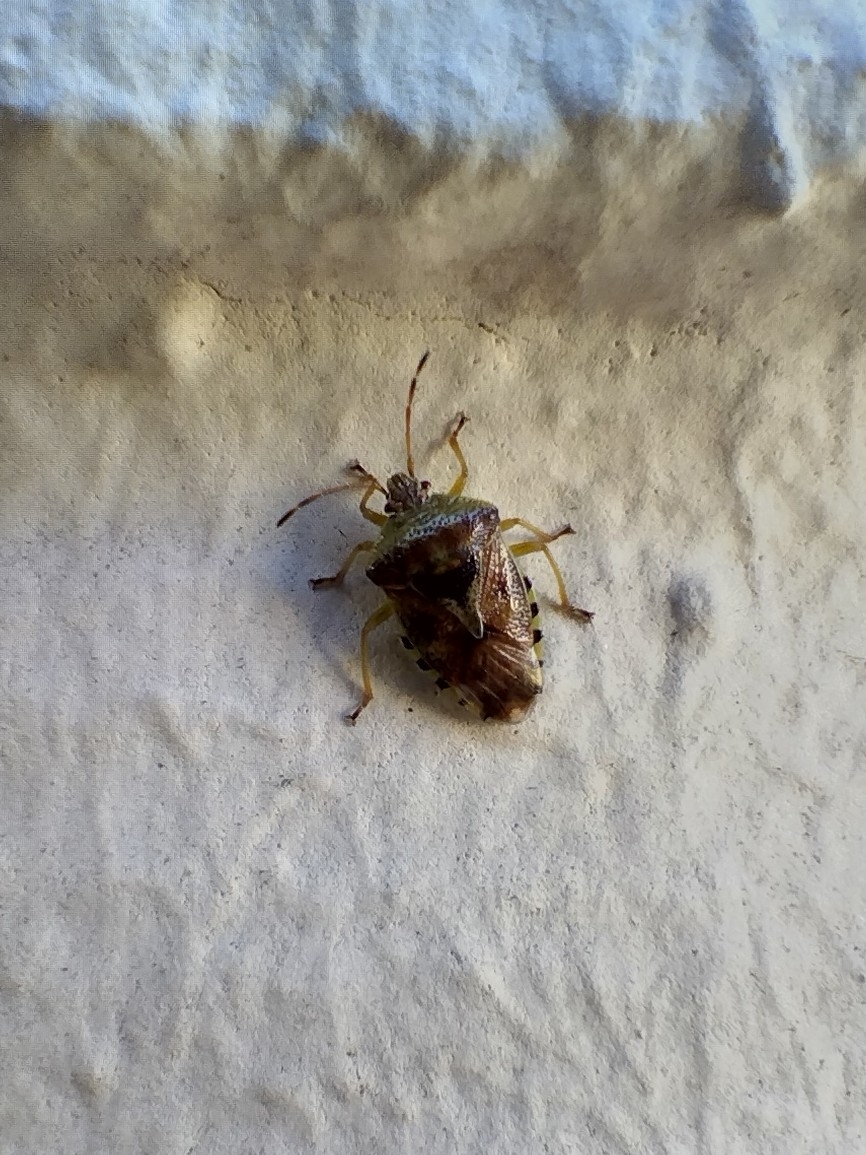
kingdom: Animalia
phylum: Arthropoda
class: Insecta
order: Hemiptera
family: Acanthosomatidae
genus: Elasmucha
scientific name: Elasmucha grisea
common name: Parent bug
